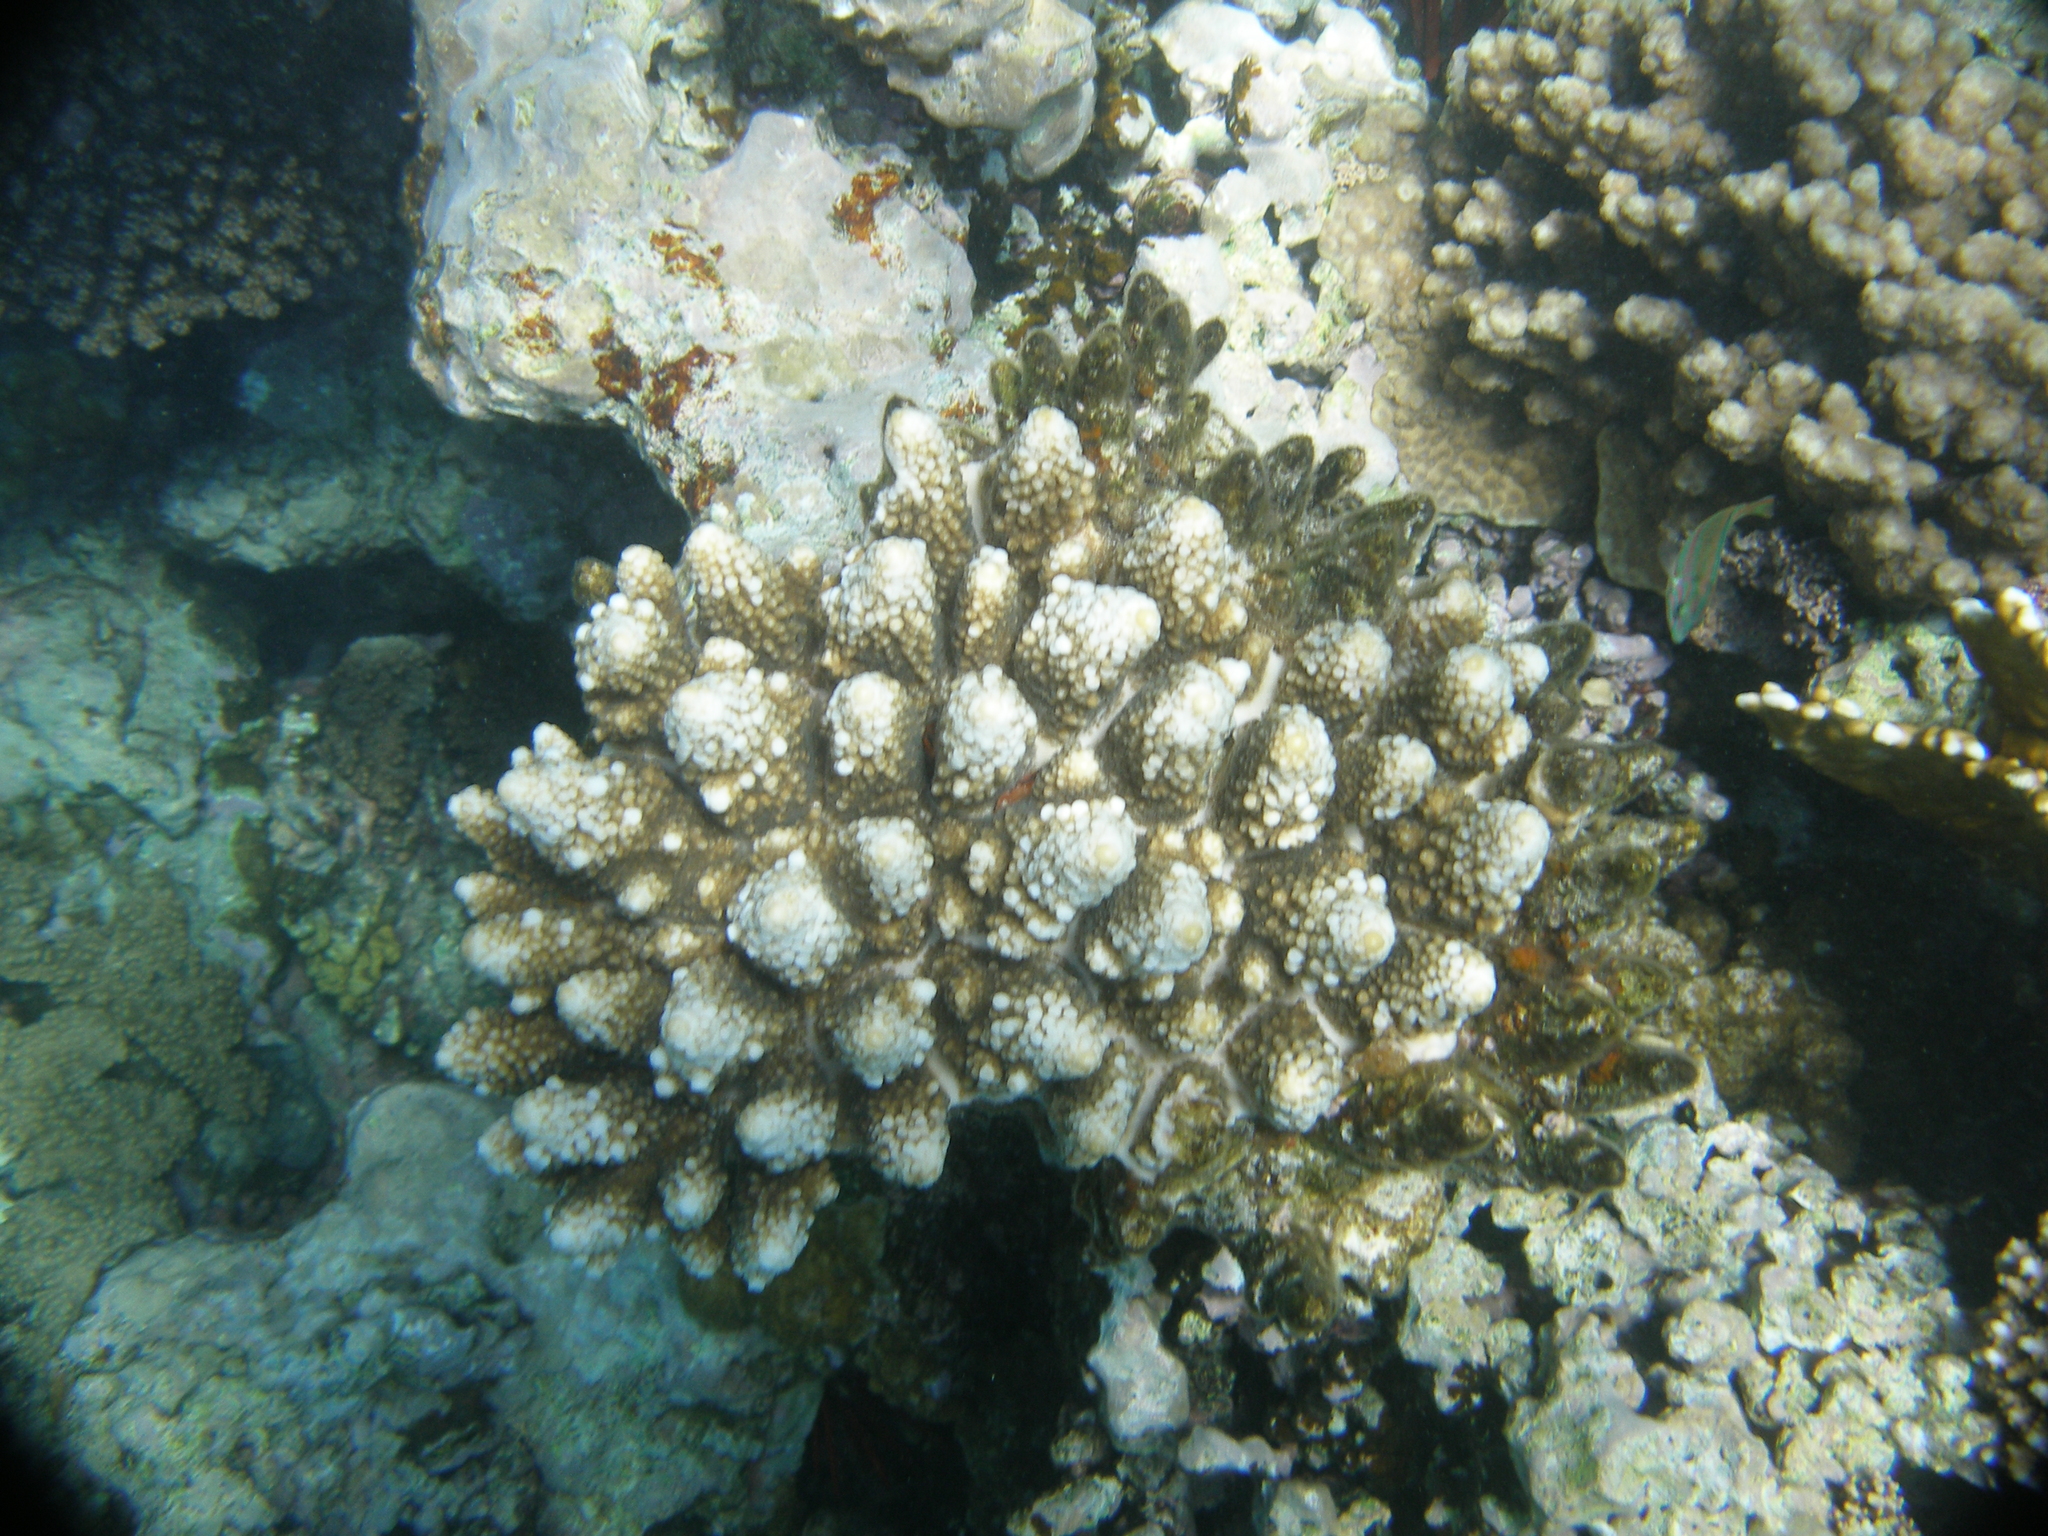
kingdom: Animalia
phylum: Cnidaria
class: Anthozoa
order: Scleractinia
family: Acroporidae
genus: Acropora
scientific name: Acropora gemmifera
